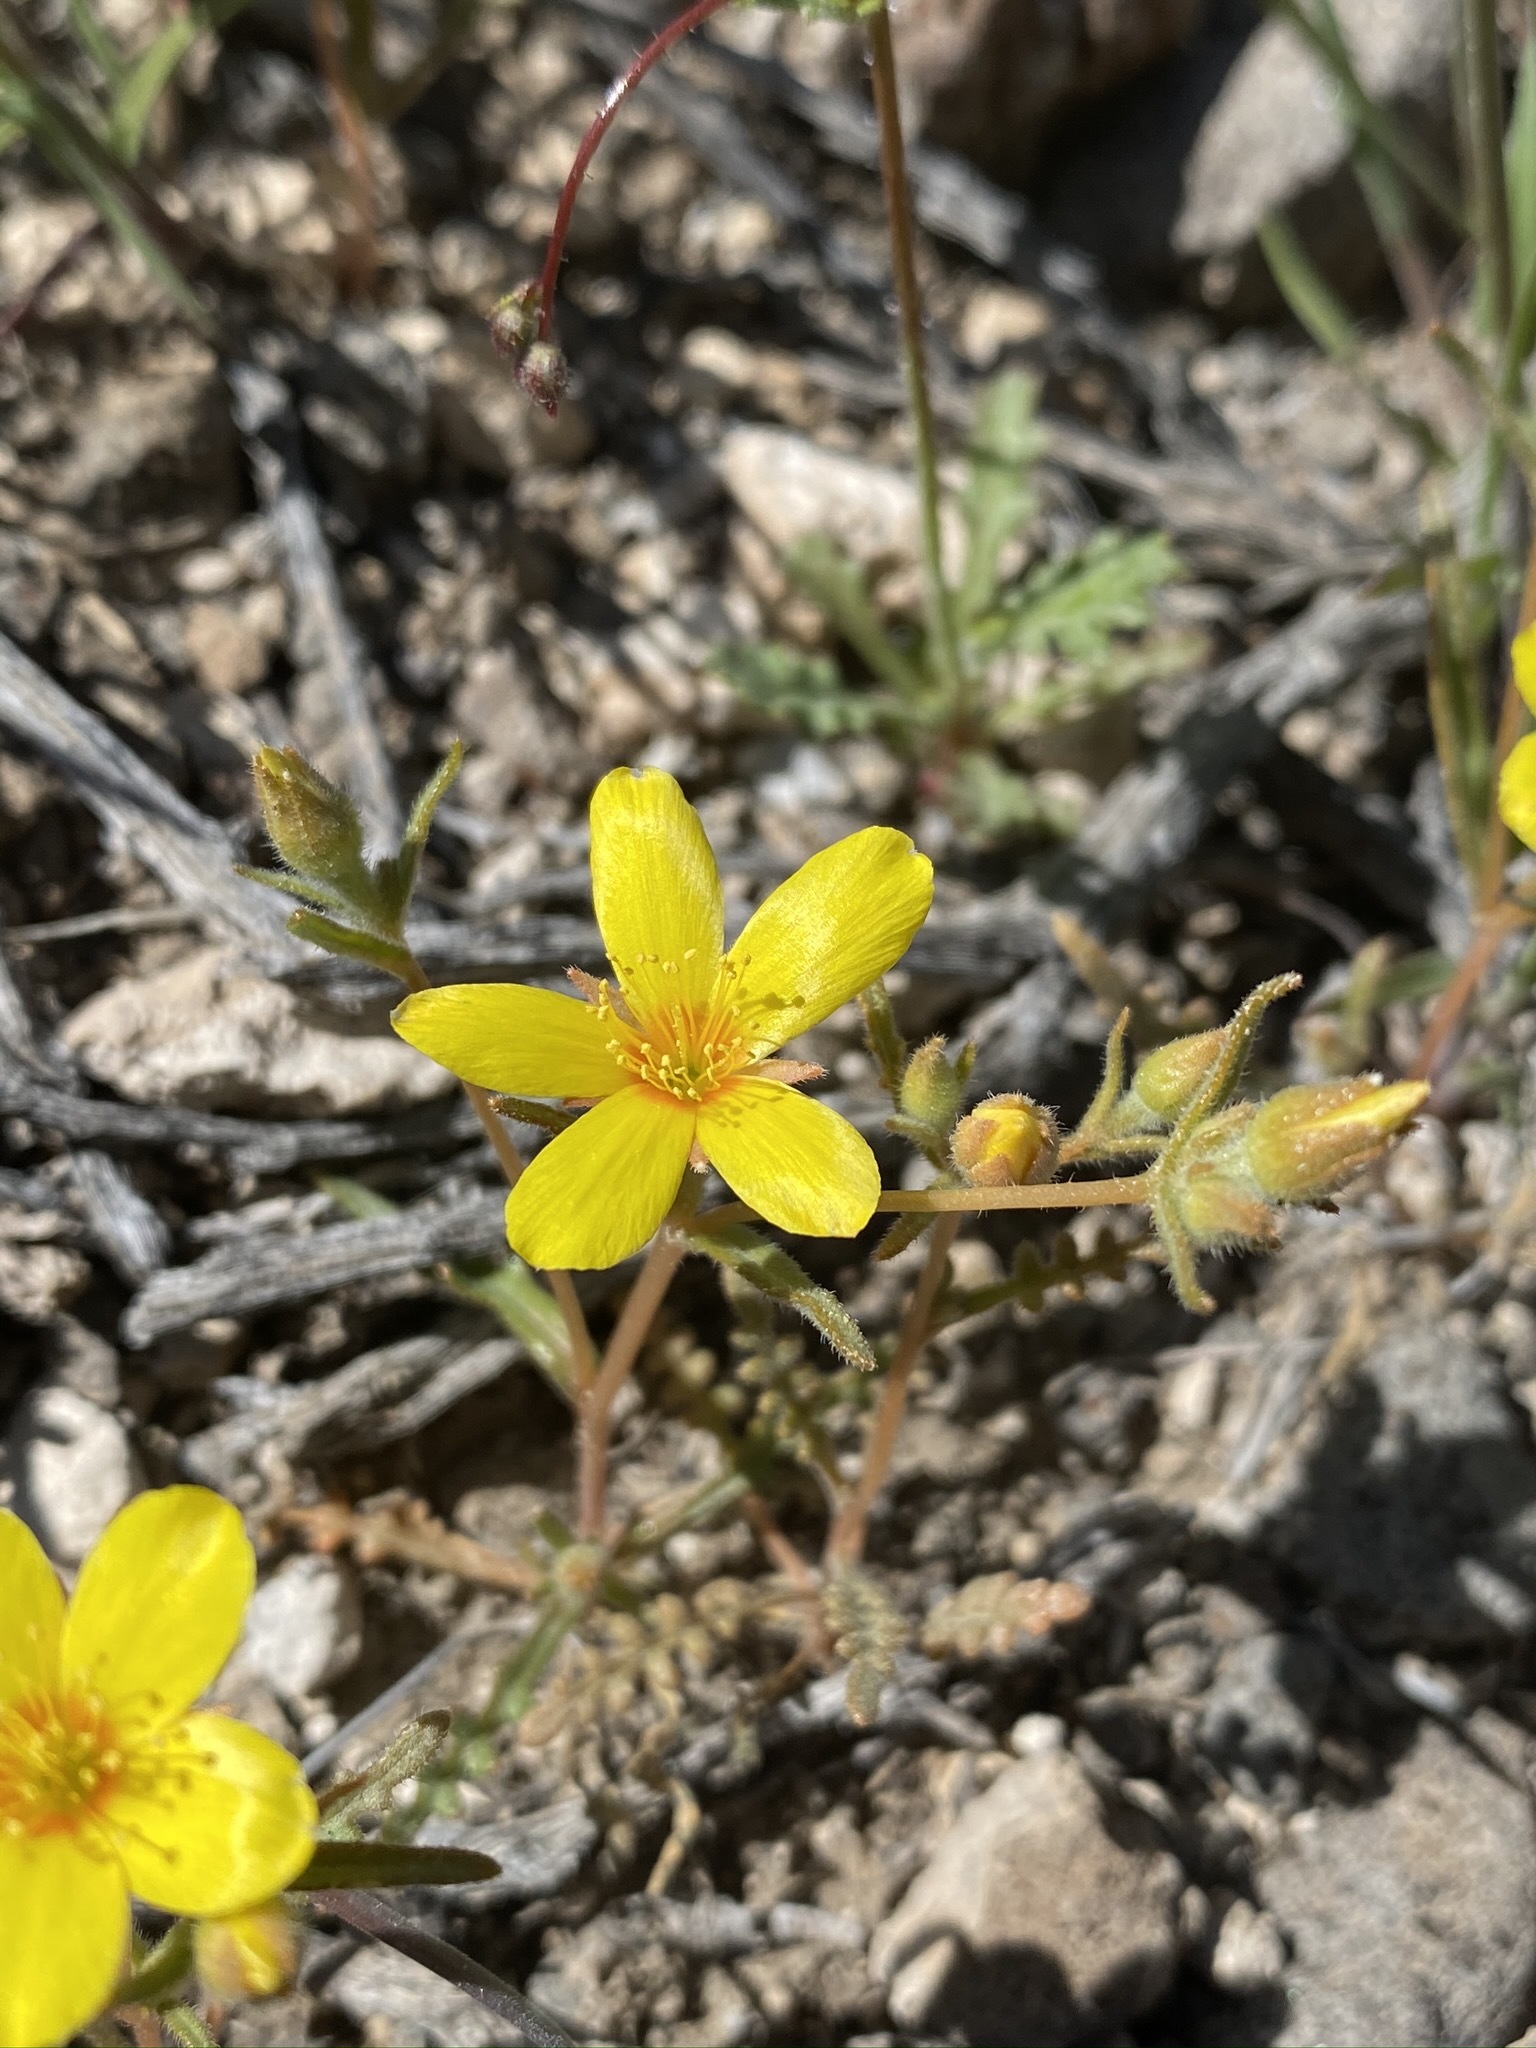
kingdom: Plantae
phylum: Tracheophyta
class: Magnoliopsida
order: Cornales
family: Loasaceae
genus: Mentzelia
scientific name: Mentzelia nitens
